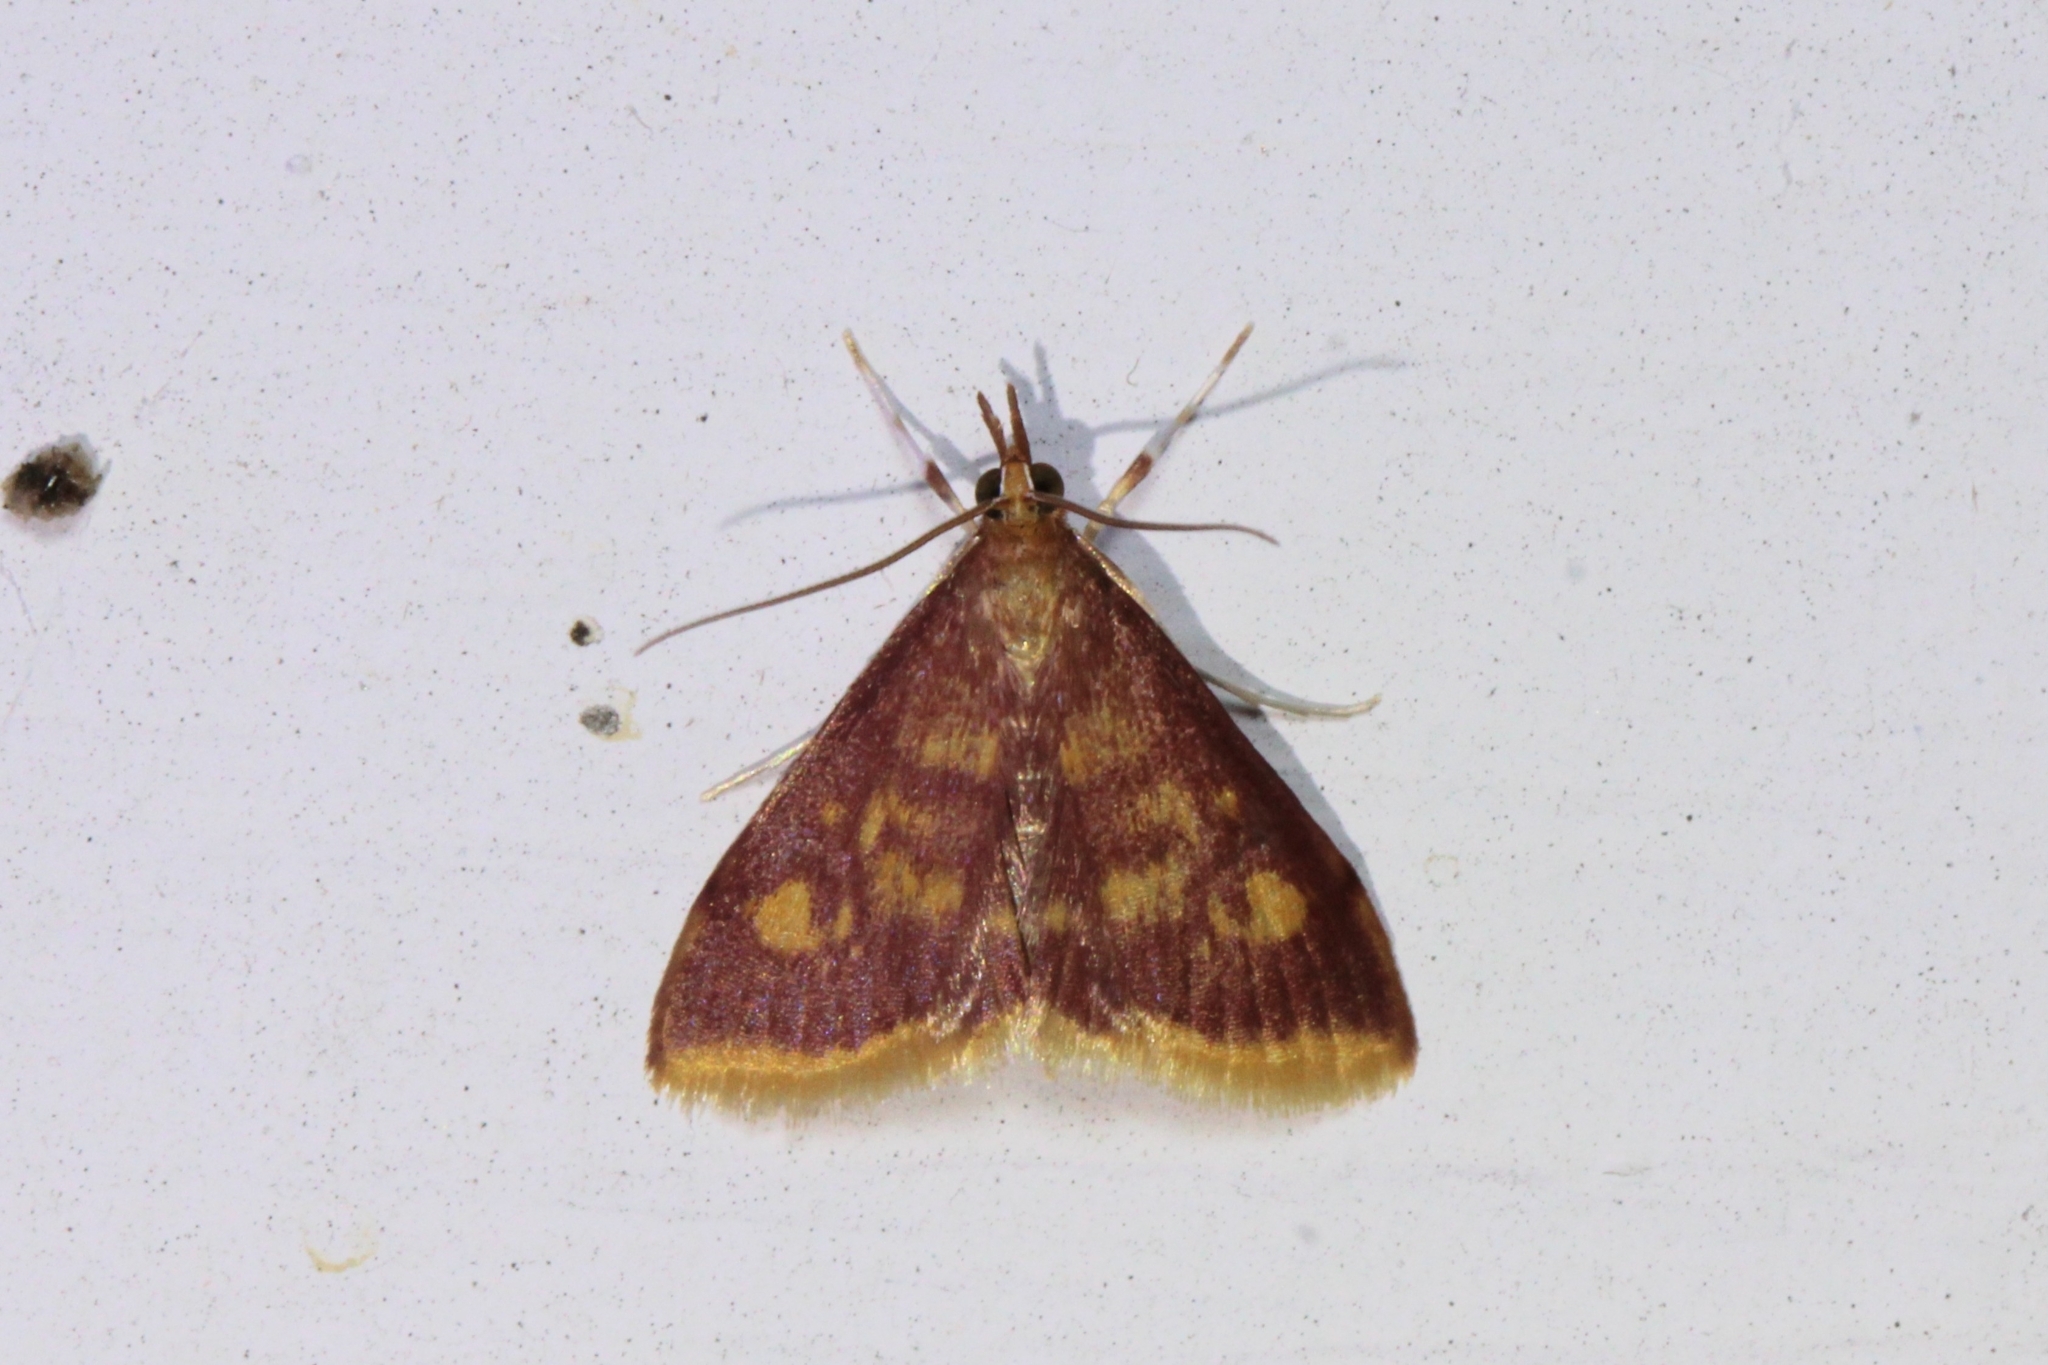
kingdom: Animalia
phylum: Arthropoda
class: Insecta
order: Lepidoptera
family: Crambidae
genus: Pyrausta
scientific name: Pyrausta acrionalis
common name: Mint-loving pyrausta moth
